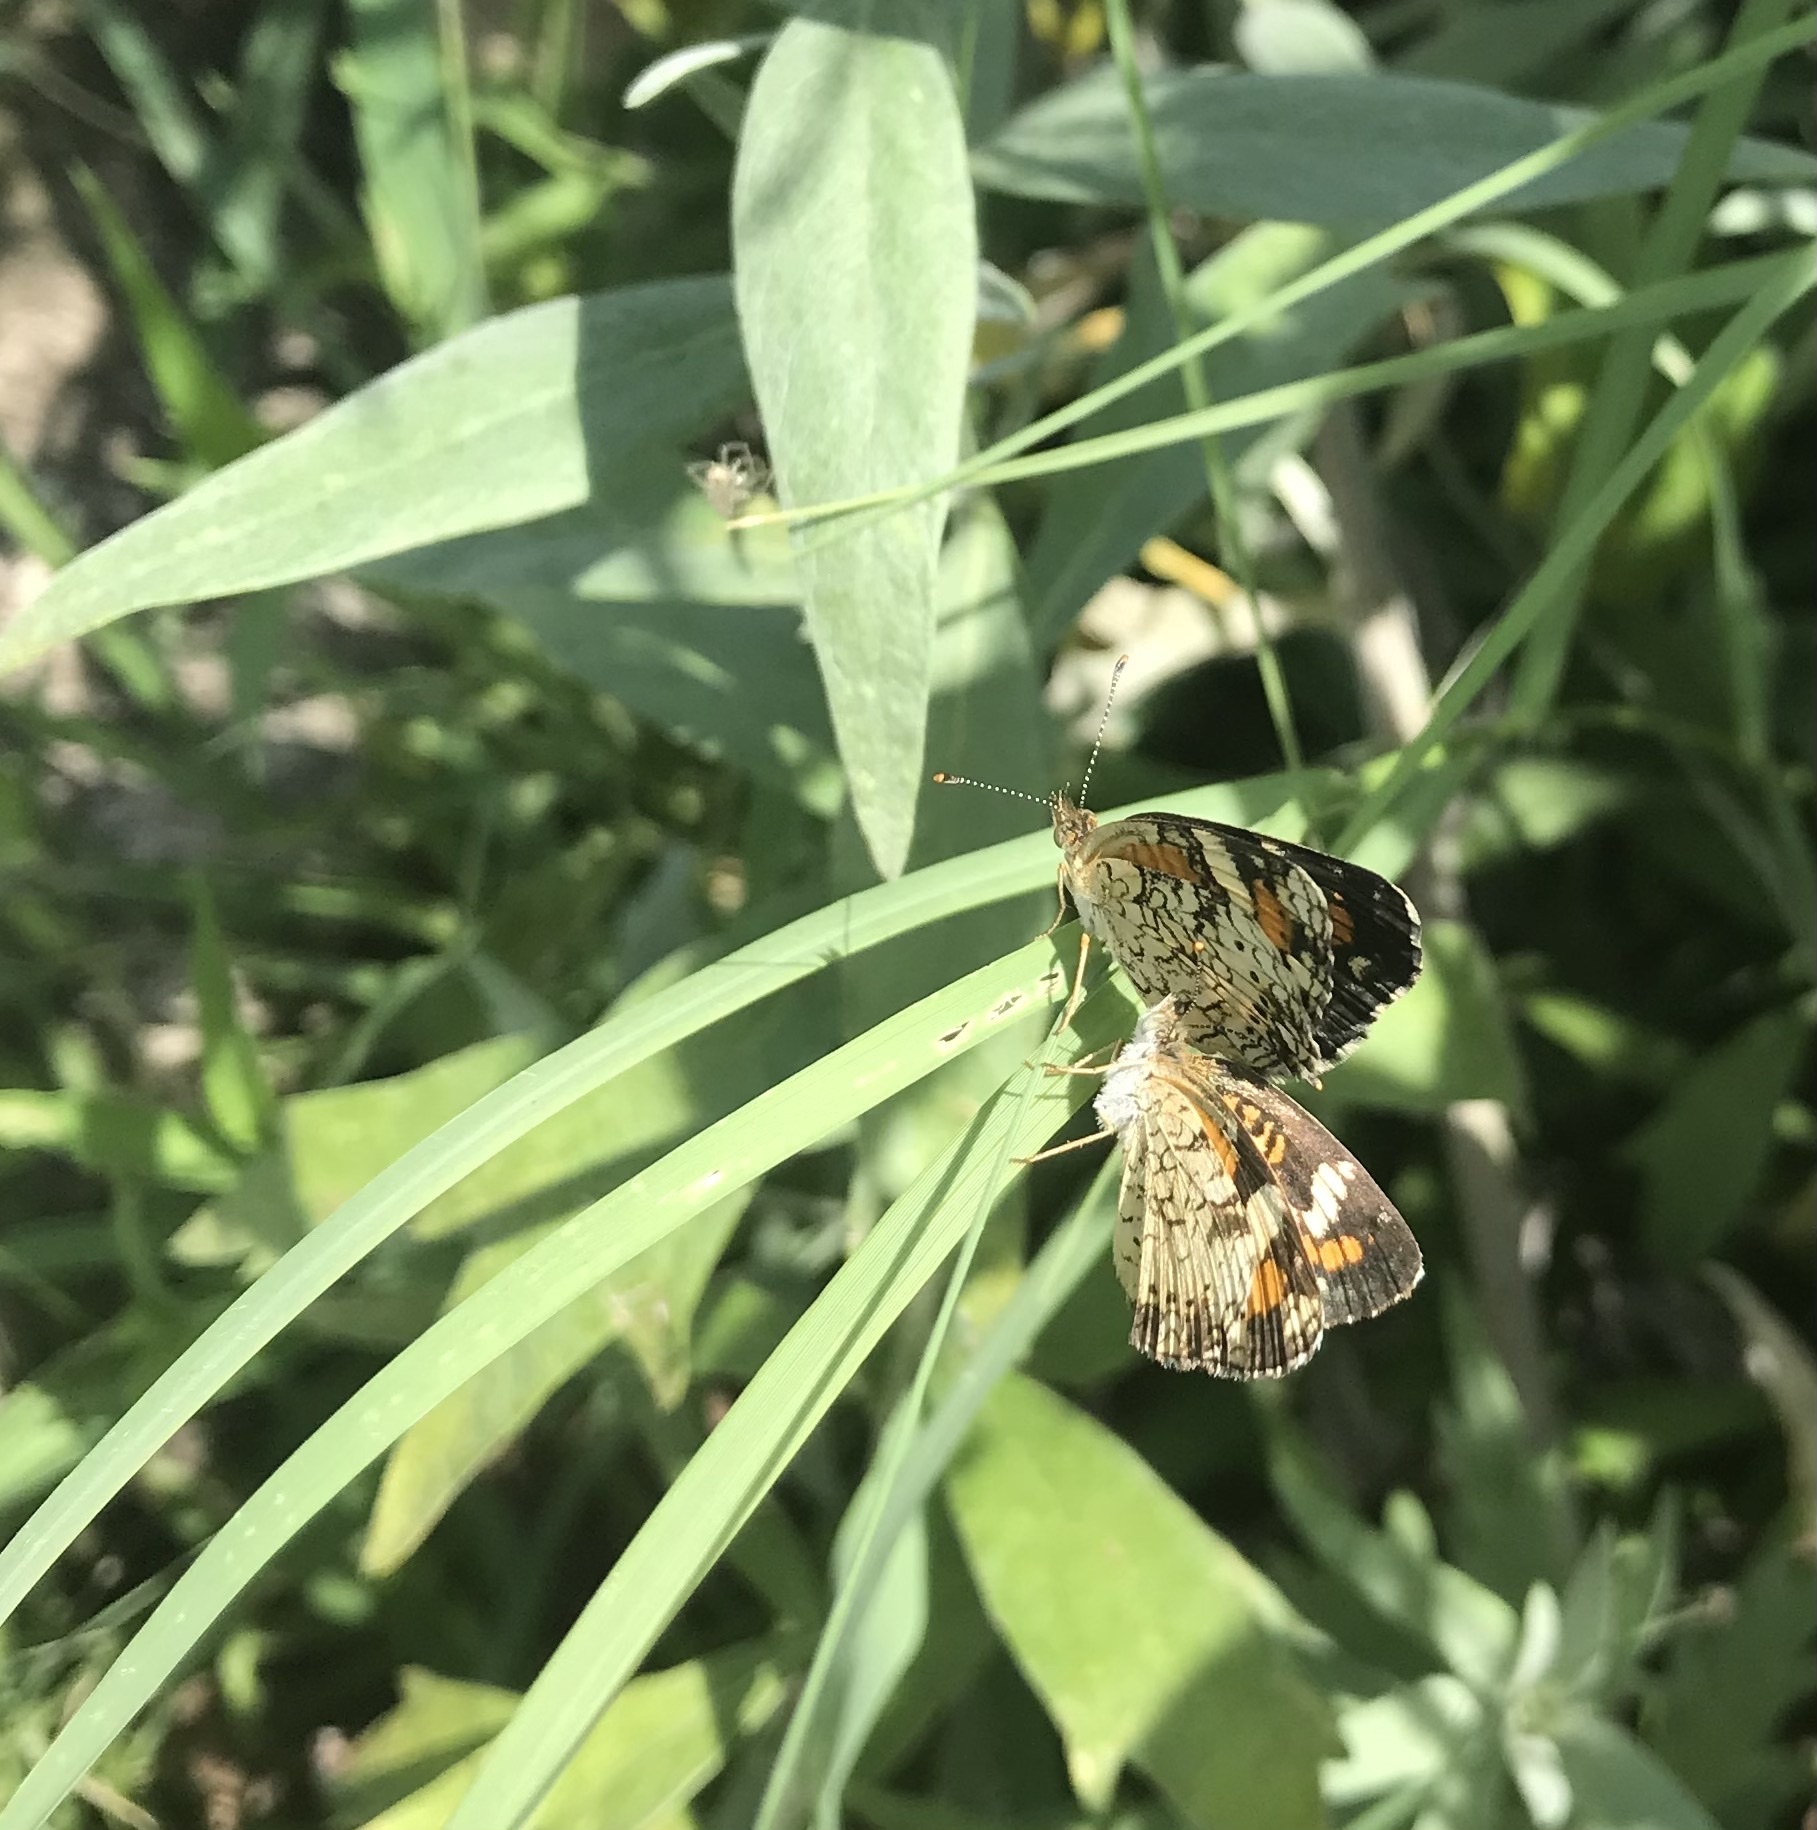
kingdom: Animalia
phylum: Arthropoda
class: Insecta
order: Lepidoptera
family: Nymphalidae
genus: Phyciodes
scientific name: Phyciodes phaon
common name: Phaon crescent
